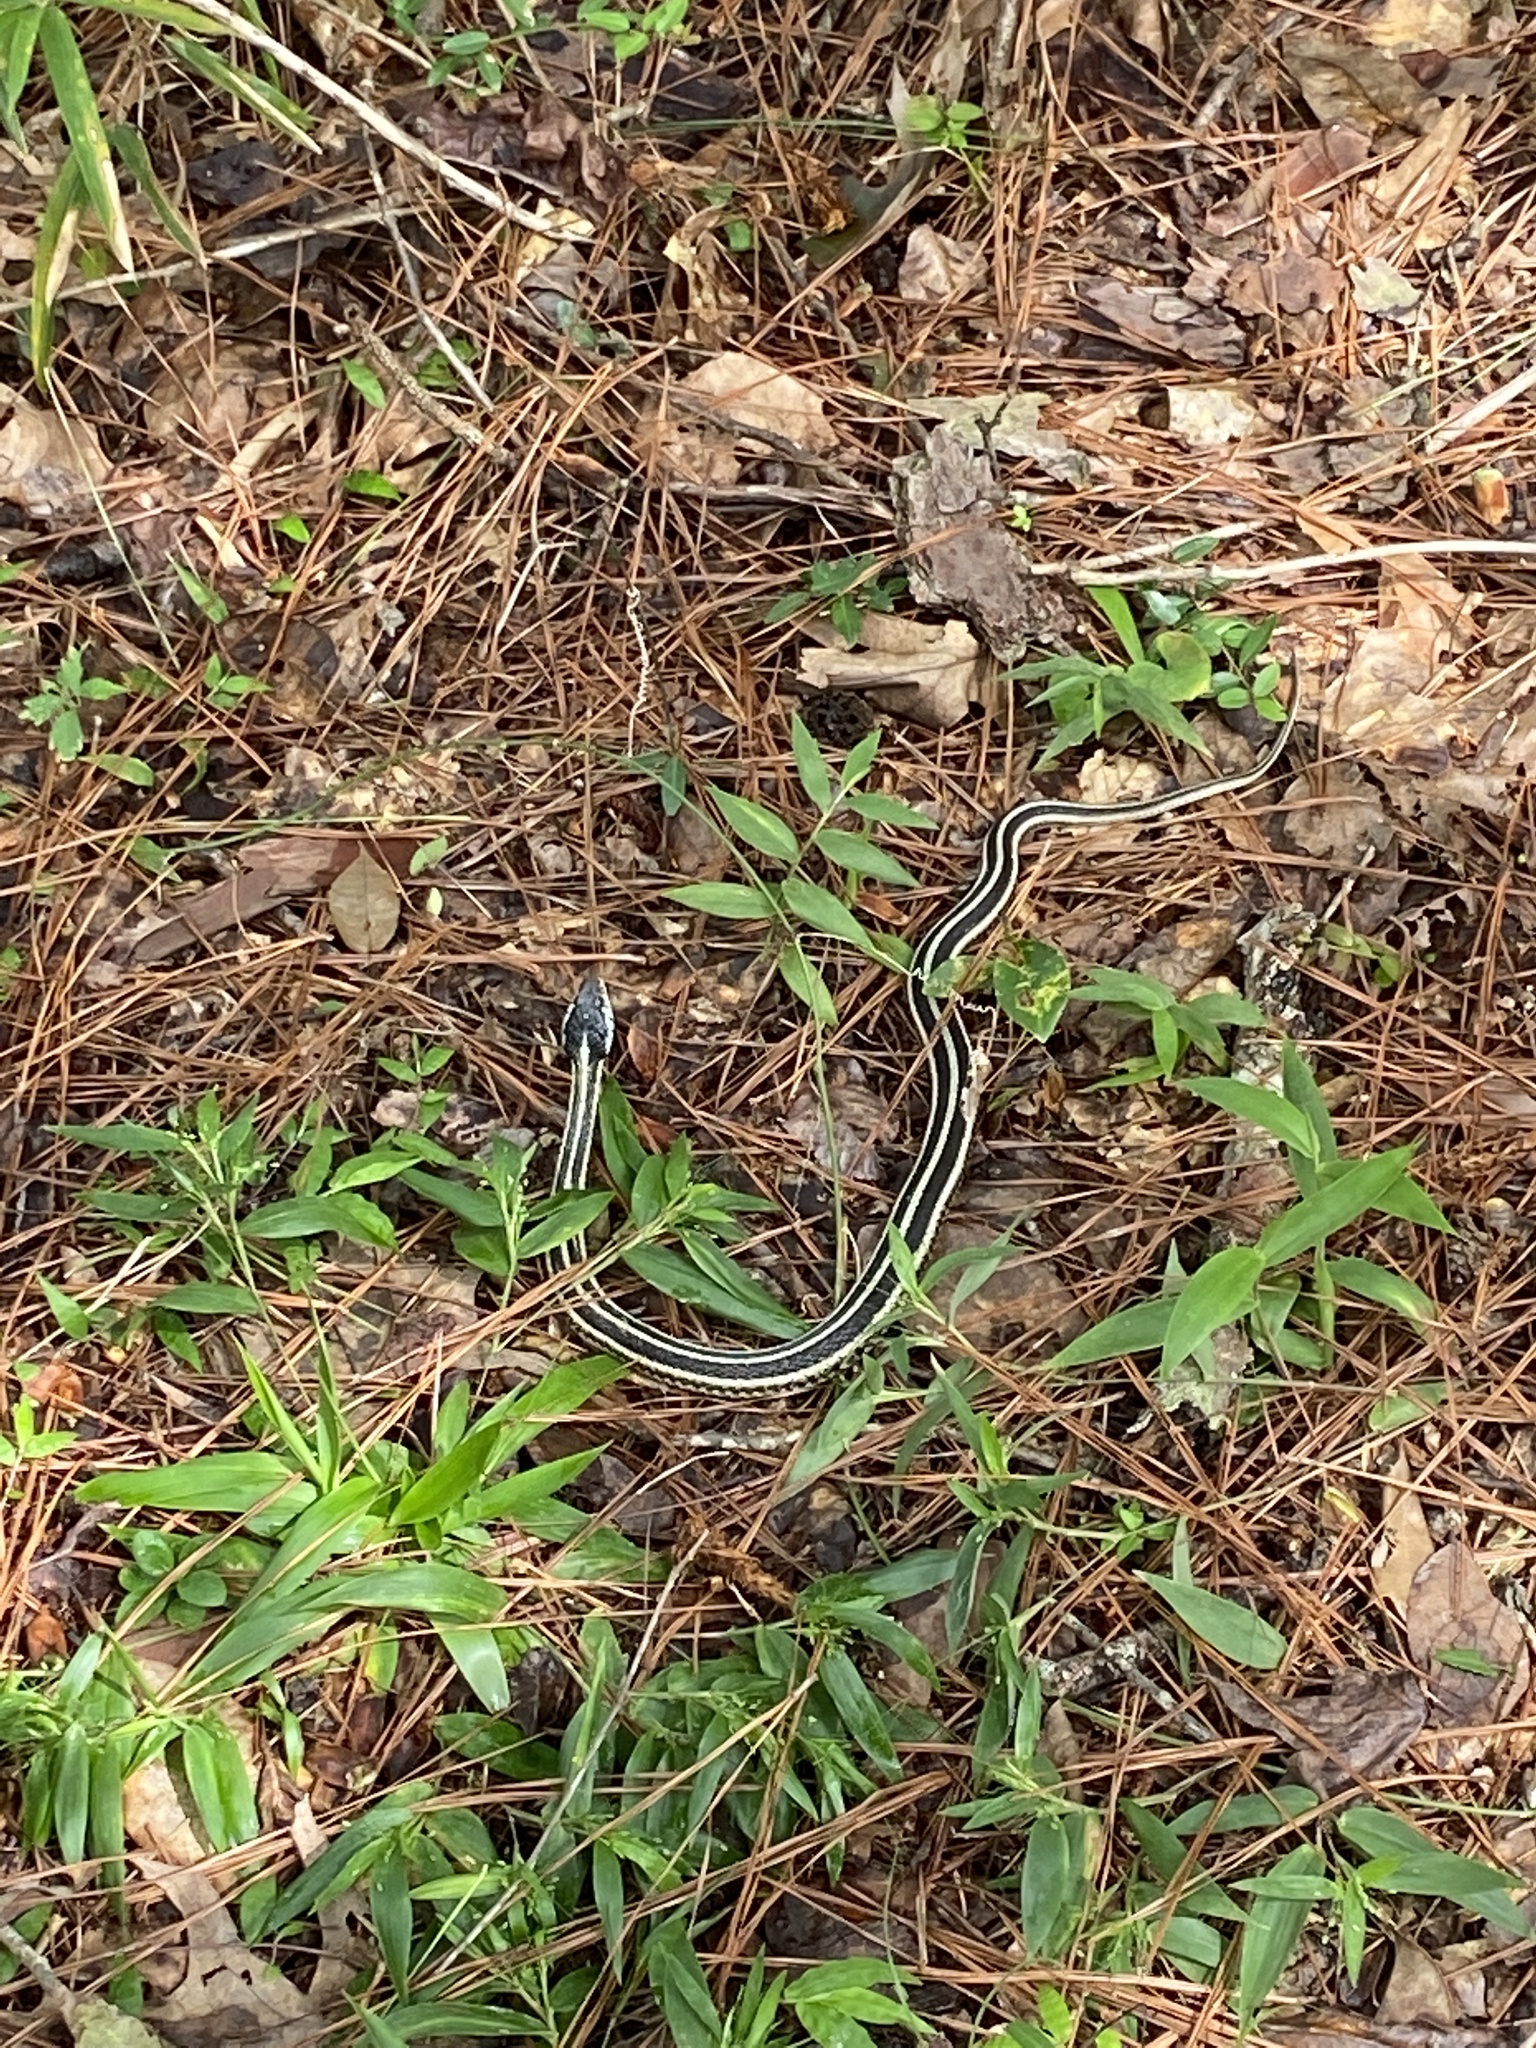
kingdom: Animalia
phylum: Chordata
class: Squamata
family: Colubridae
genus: Thamnophis
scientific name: Thamnophis sirtalis
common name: Common garter snake
